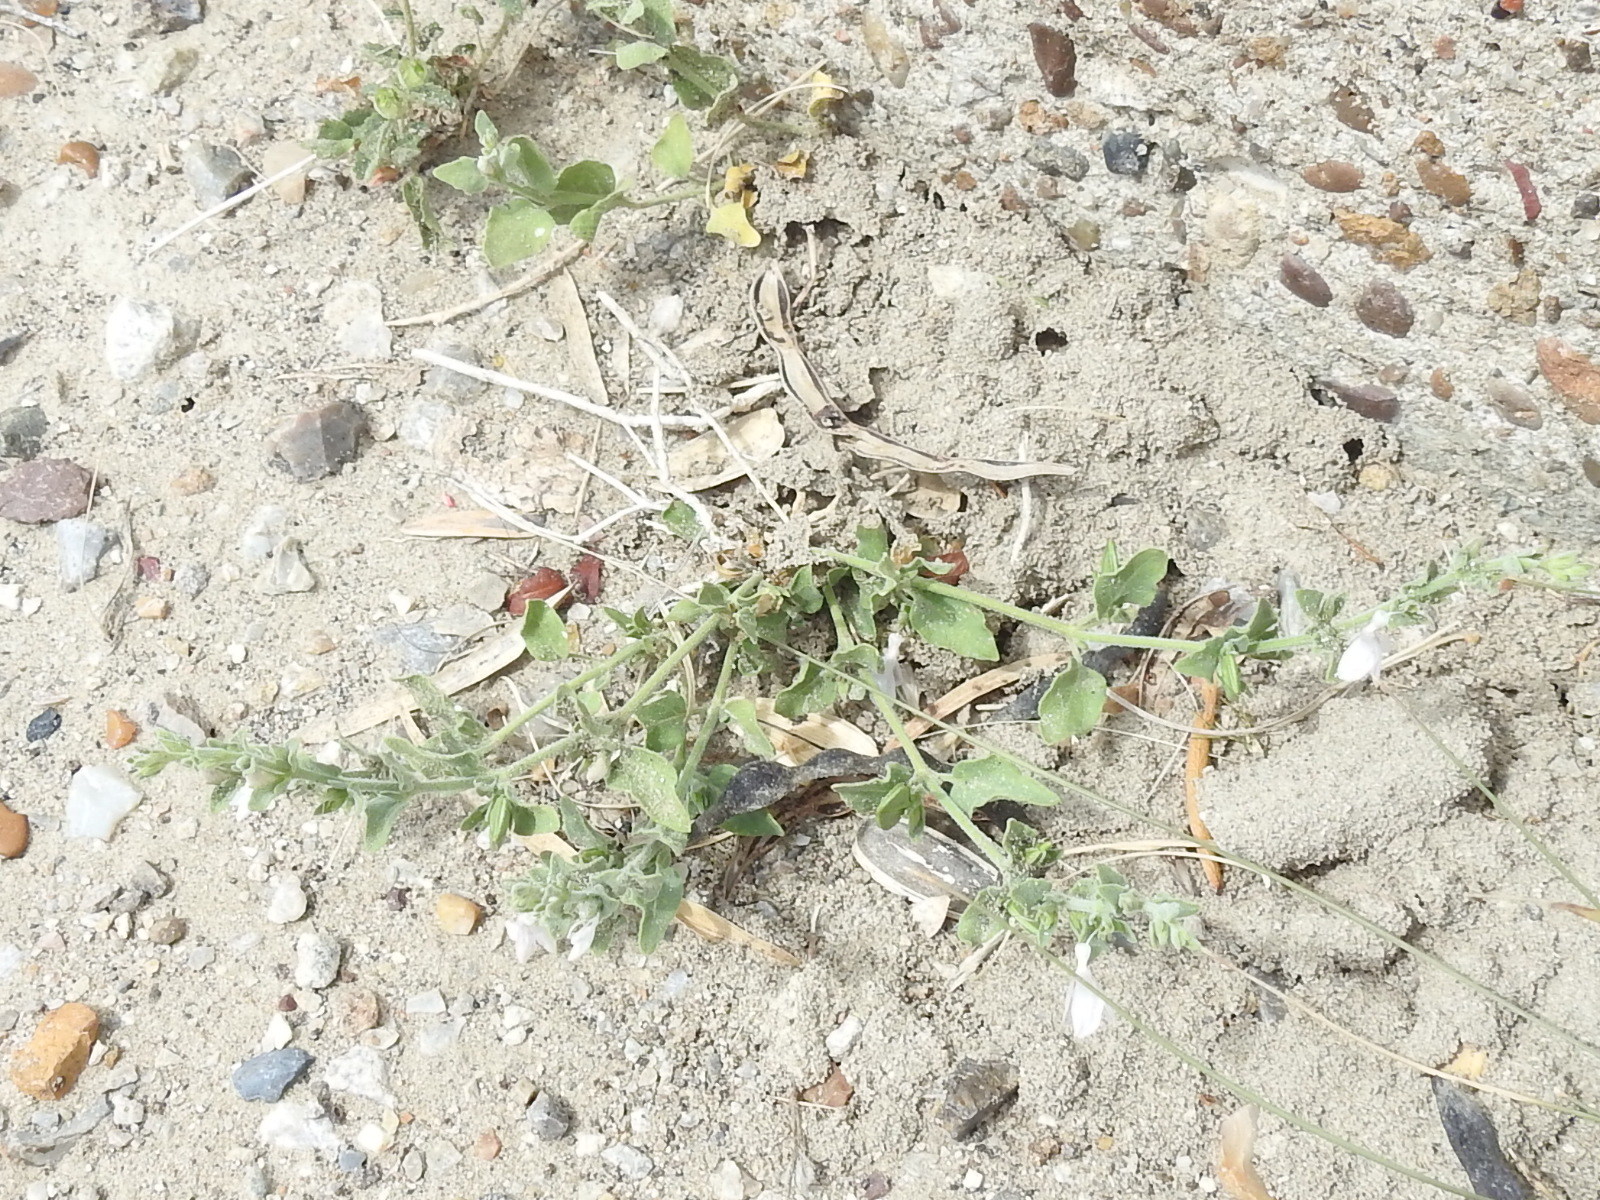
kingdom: Plantae
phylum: Tracheophyta
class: Magnoliopsida
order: Lamiales
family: Acanthaceae
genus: Carlowrightia
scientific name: Carlowrightia texana
